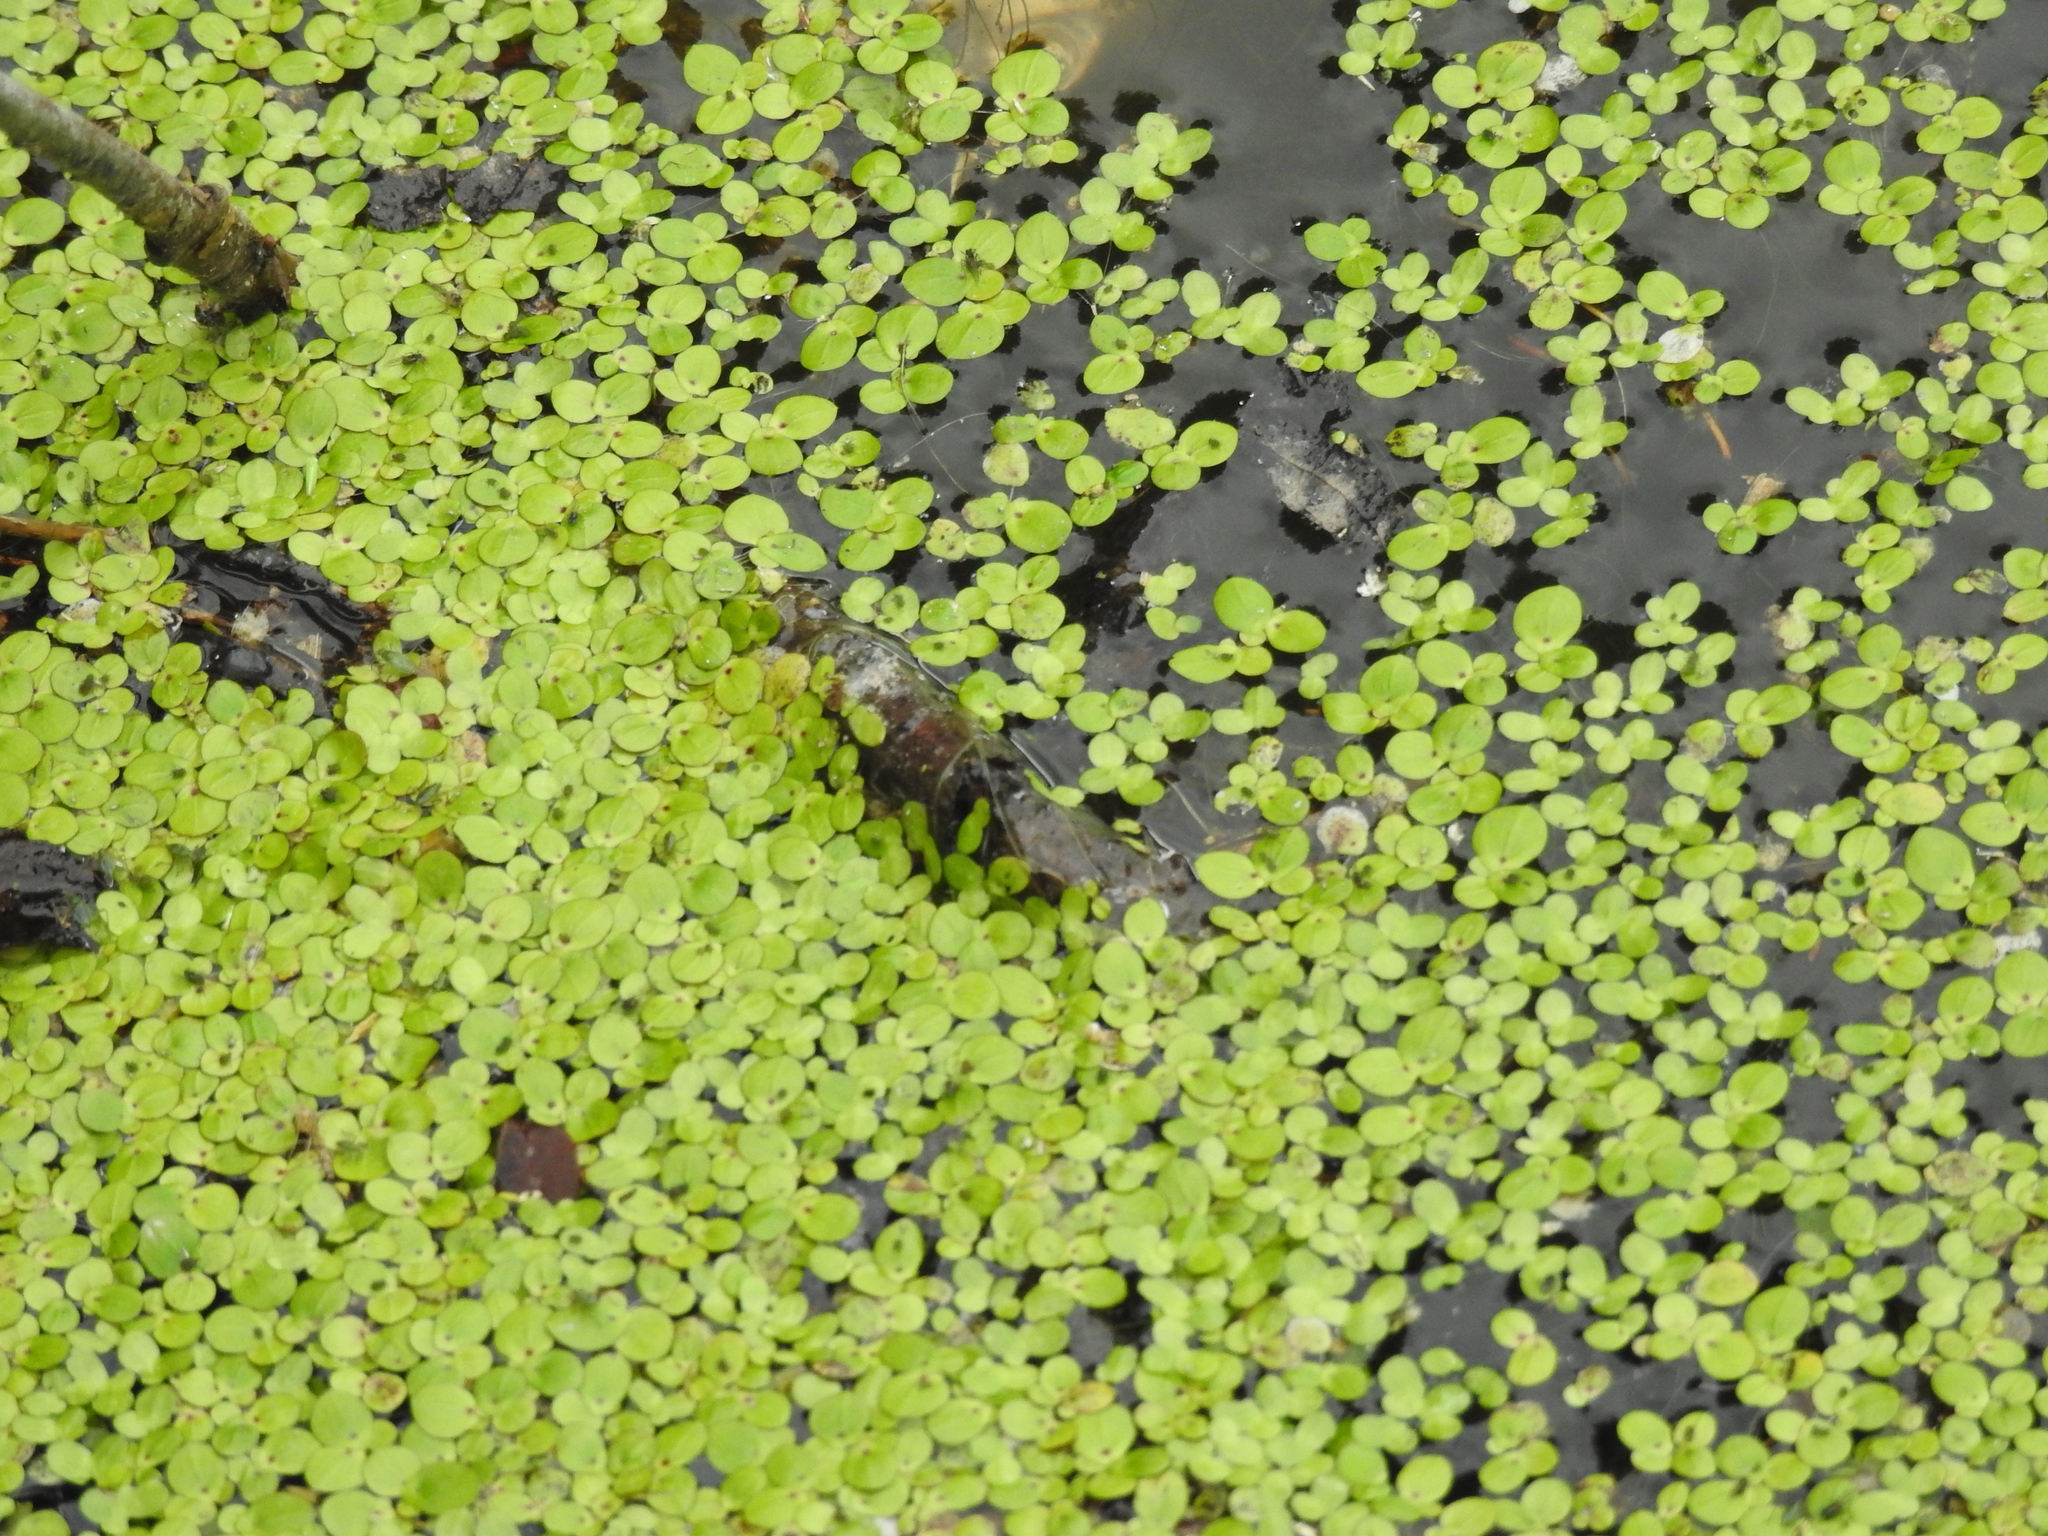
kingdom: Plantae
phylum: Tracheophyta
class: Liliopsida
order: Alismatales
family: Araceae
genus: Spirodela
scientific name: Spirodela polyrhiza
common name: Great duckweed
